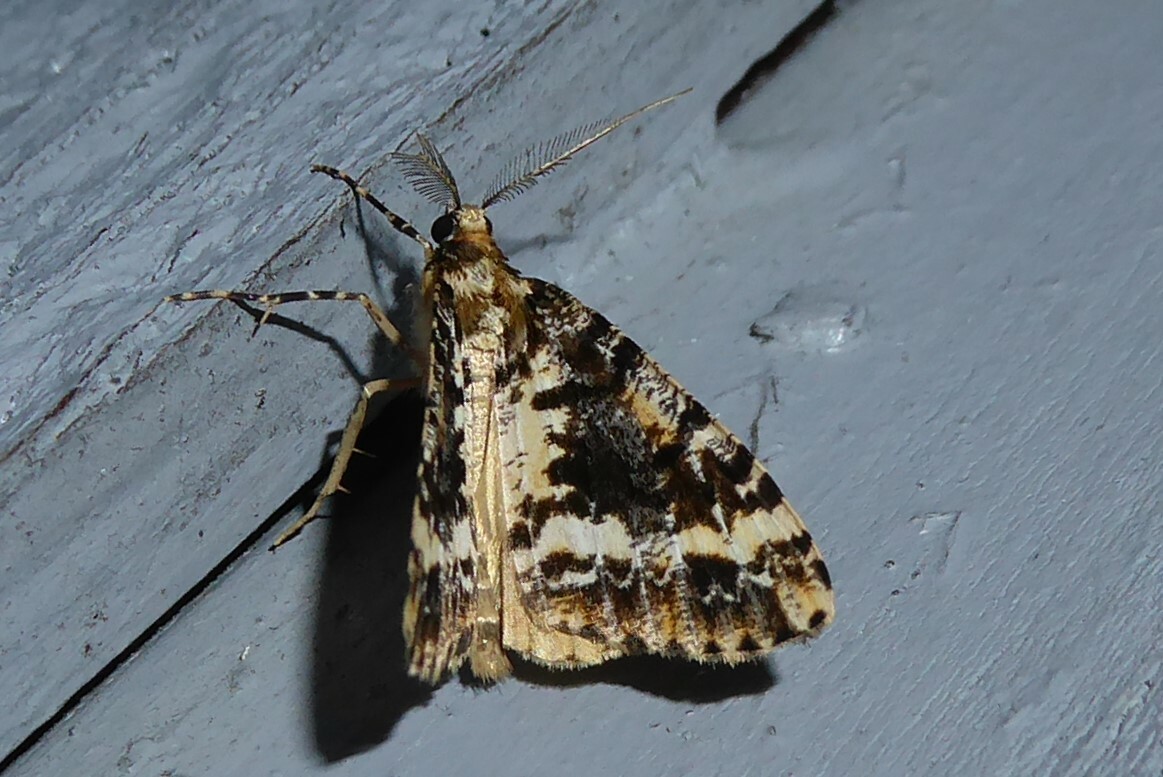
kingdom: Animalia
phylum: Arthropoda
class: Insecta
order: Lepidoptera
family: Geometridae
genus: Pseudocoremia
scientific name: Pseudocoremia leucelaea
